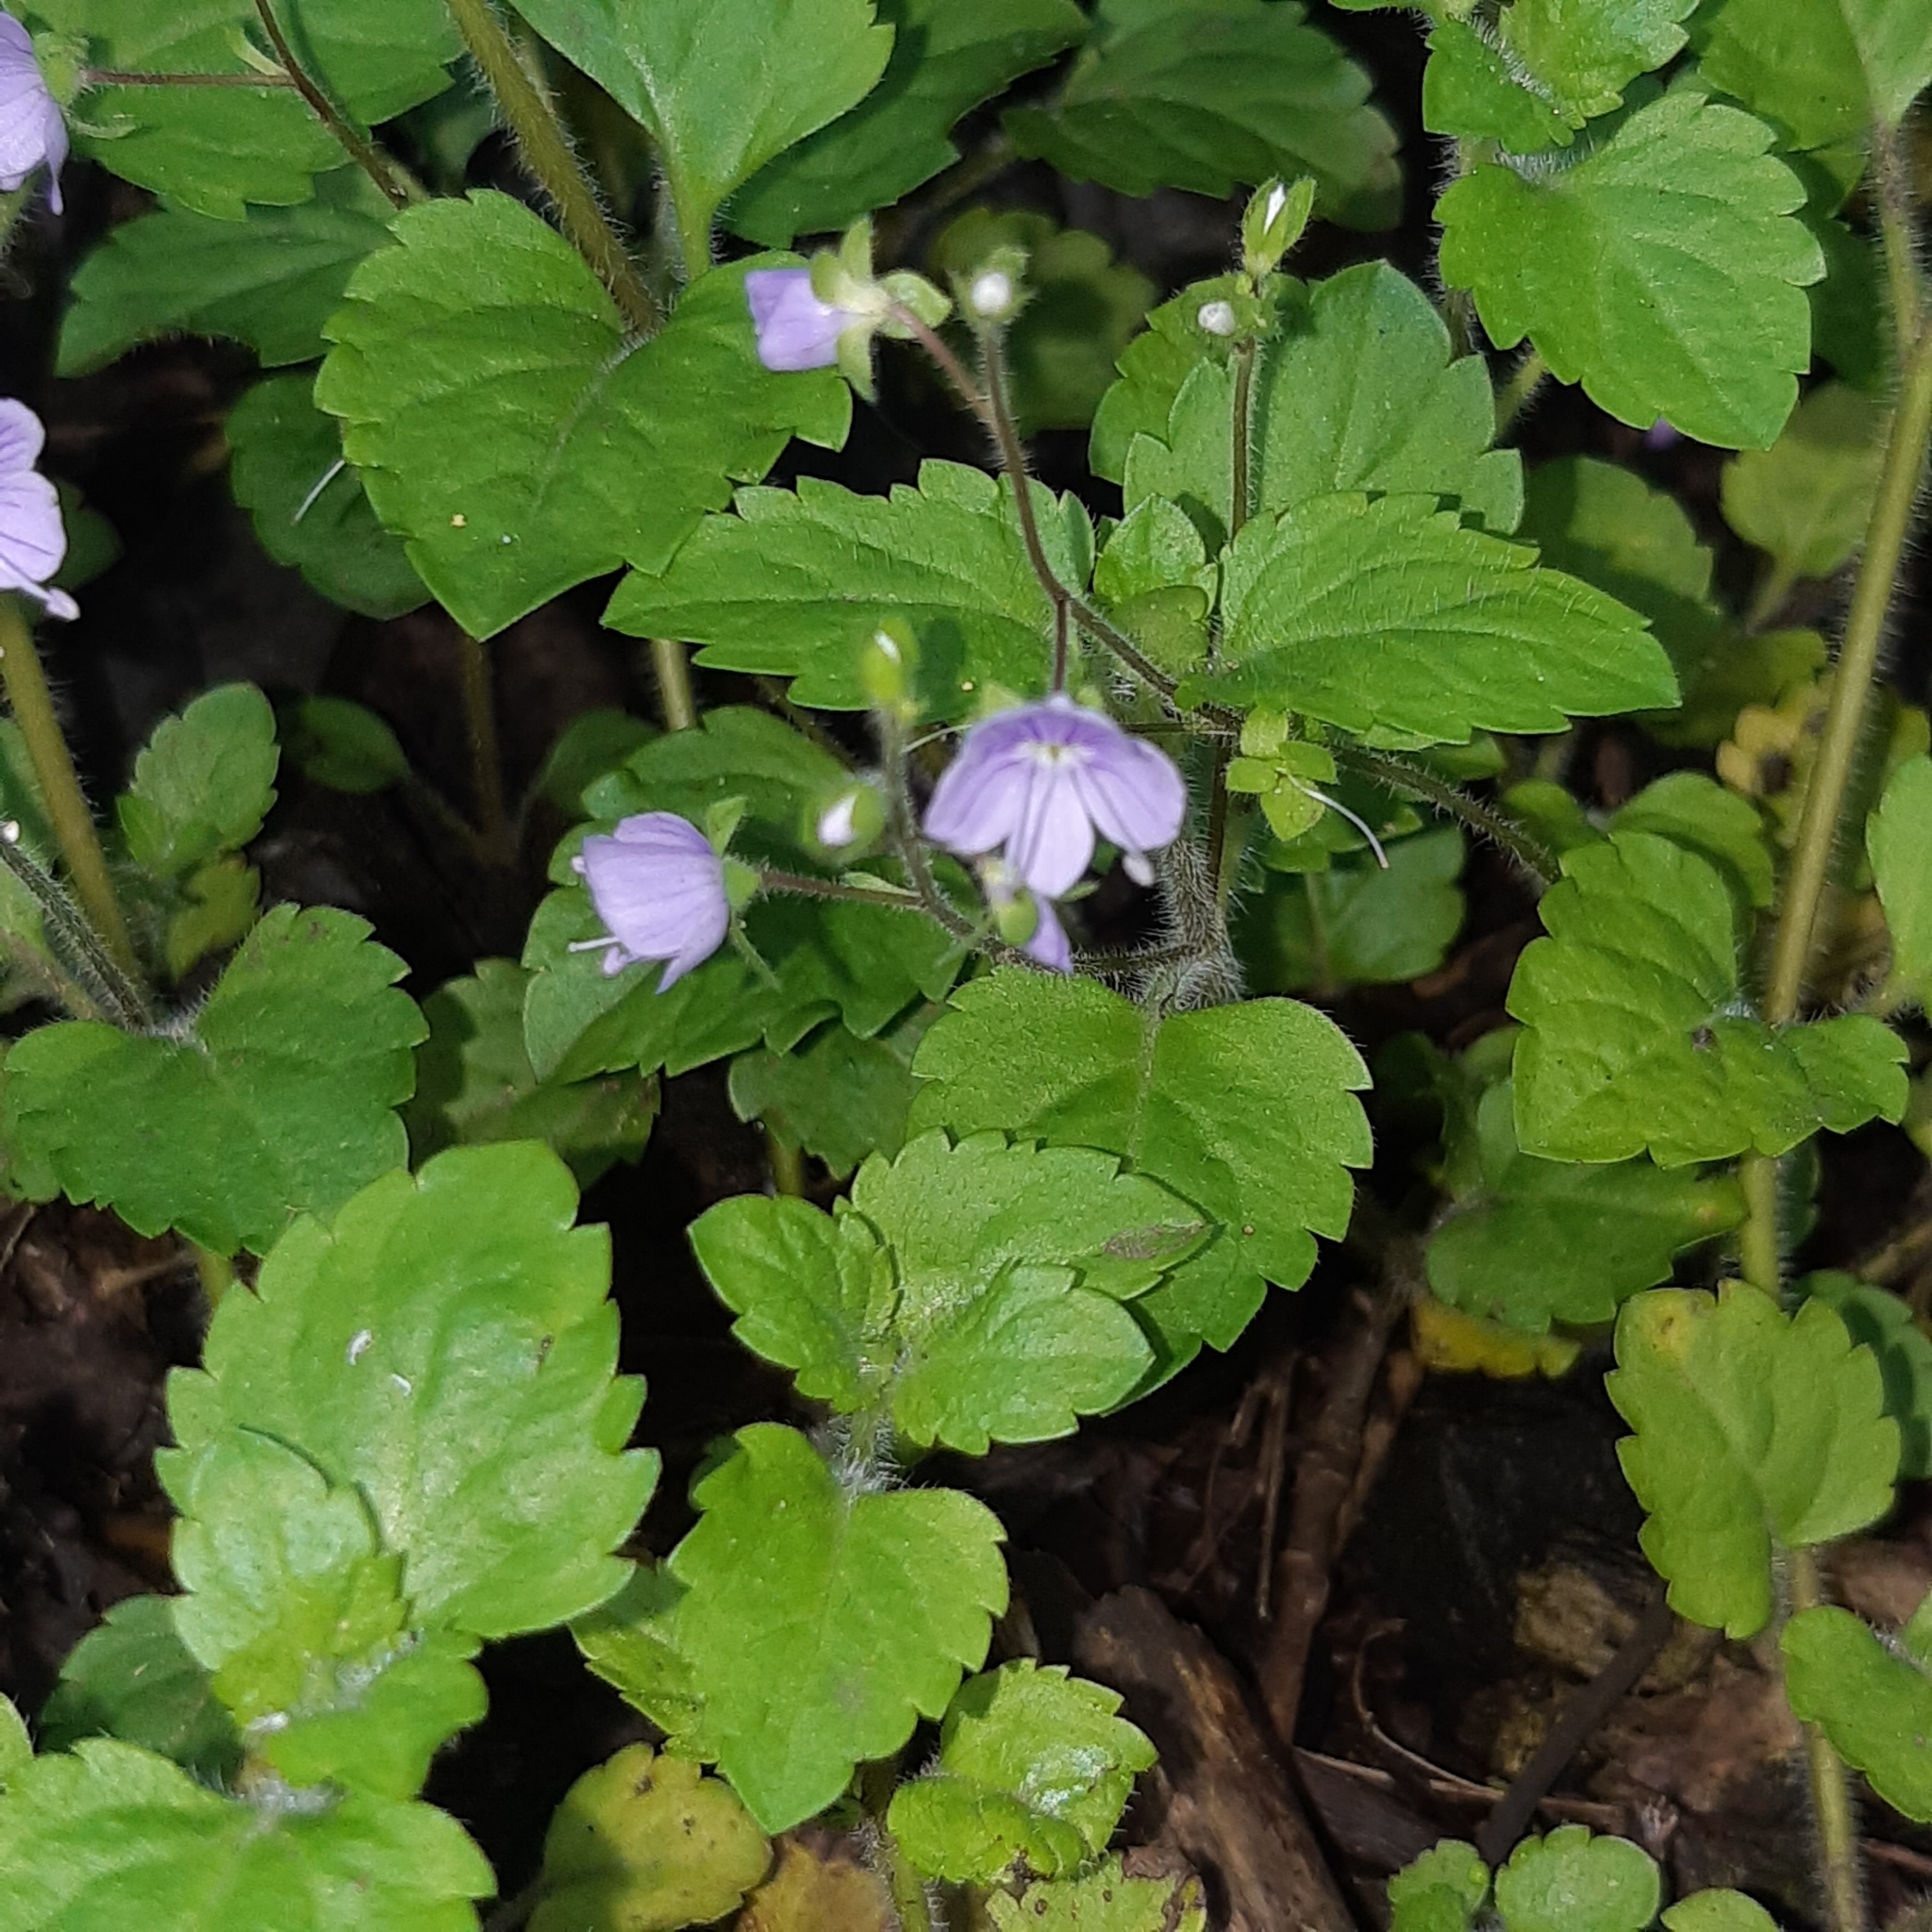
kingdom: Plantae
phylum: Tracheophyta
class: Magnoliopsida
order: Lamiales
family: Plantaginaceae
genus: Veronica
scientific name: Veronica montana
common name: Wood speedwell
